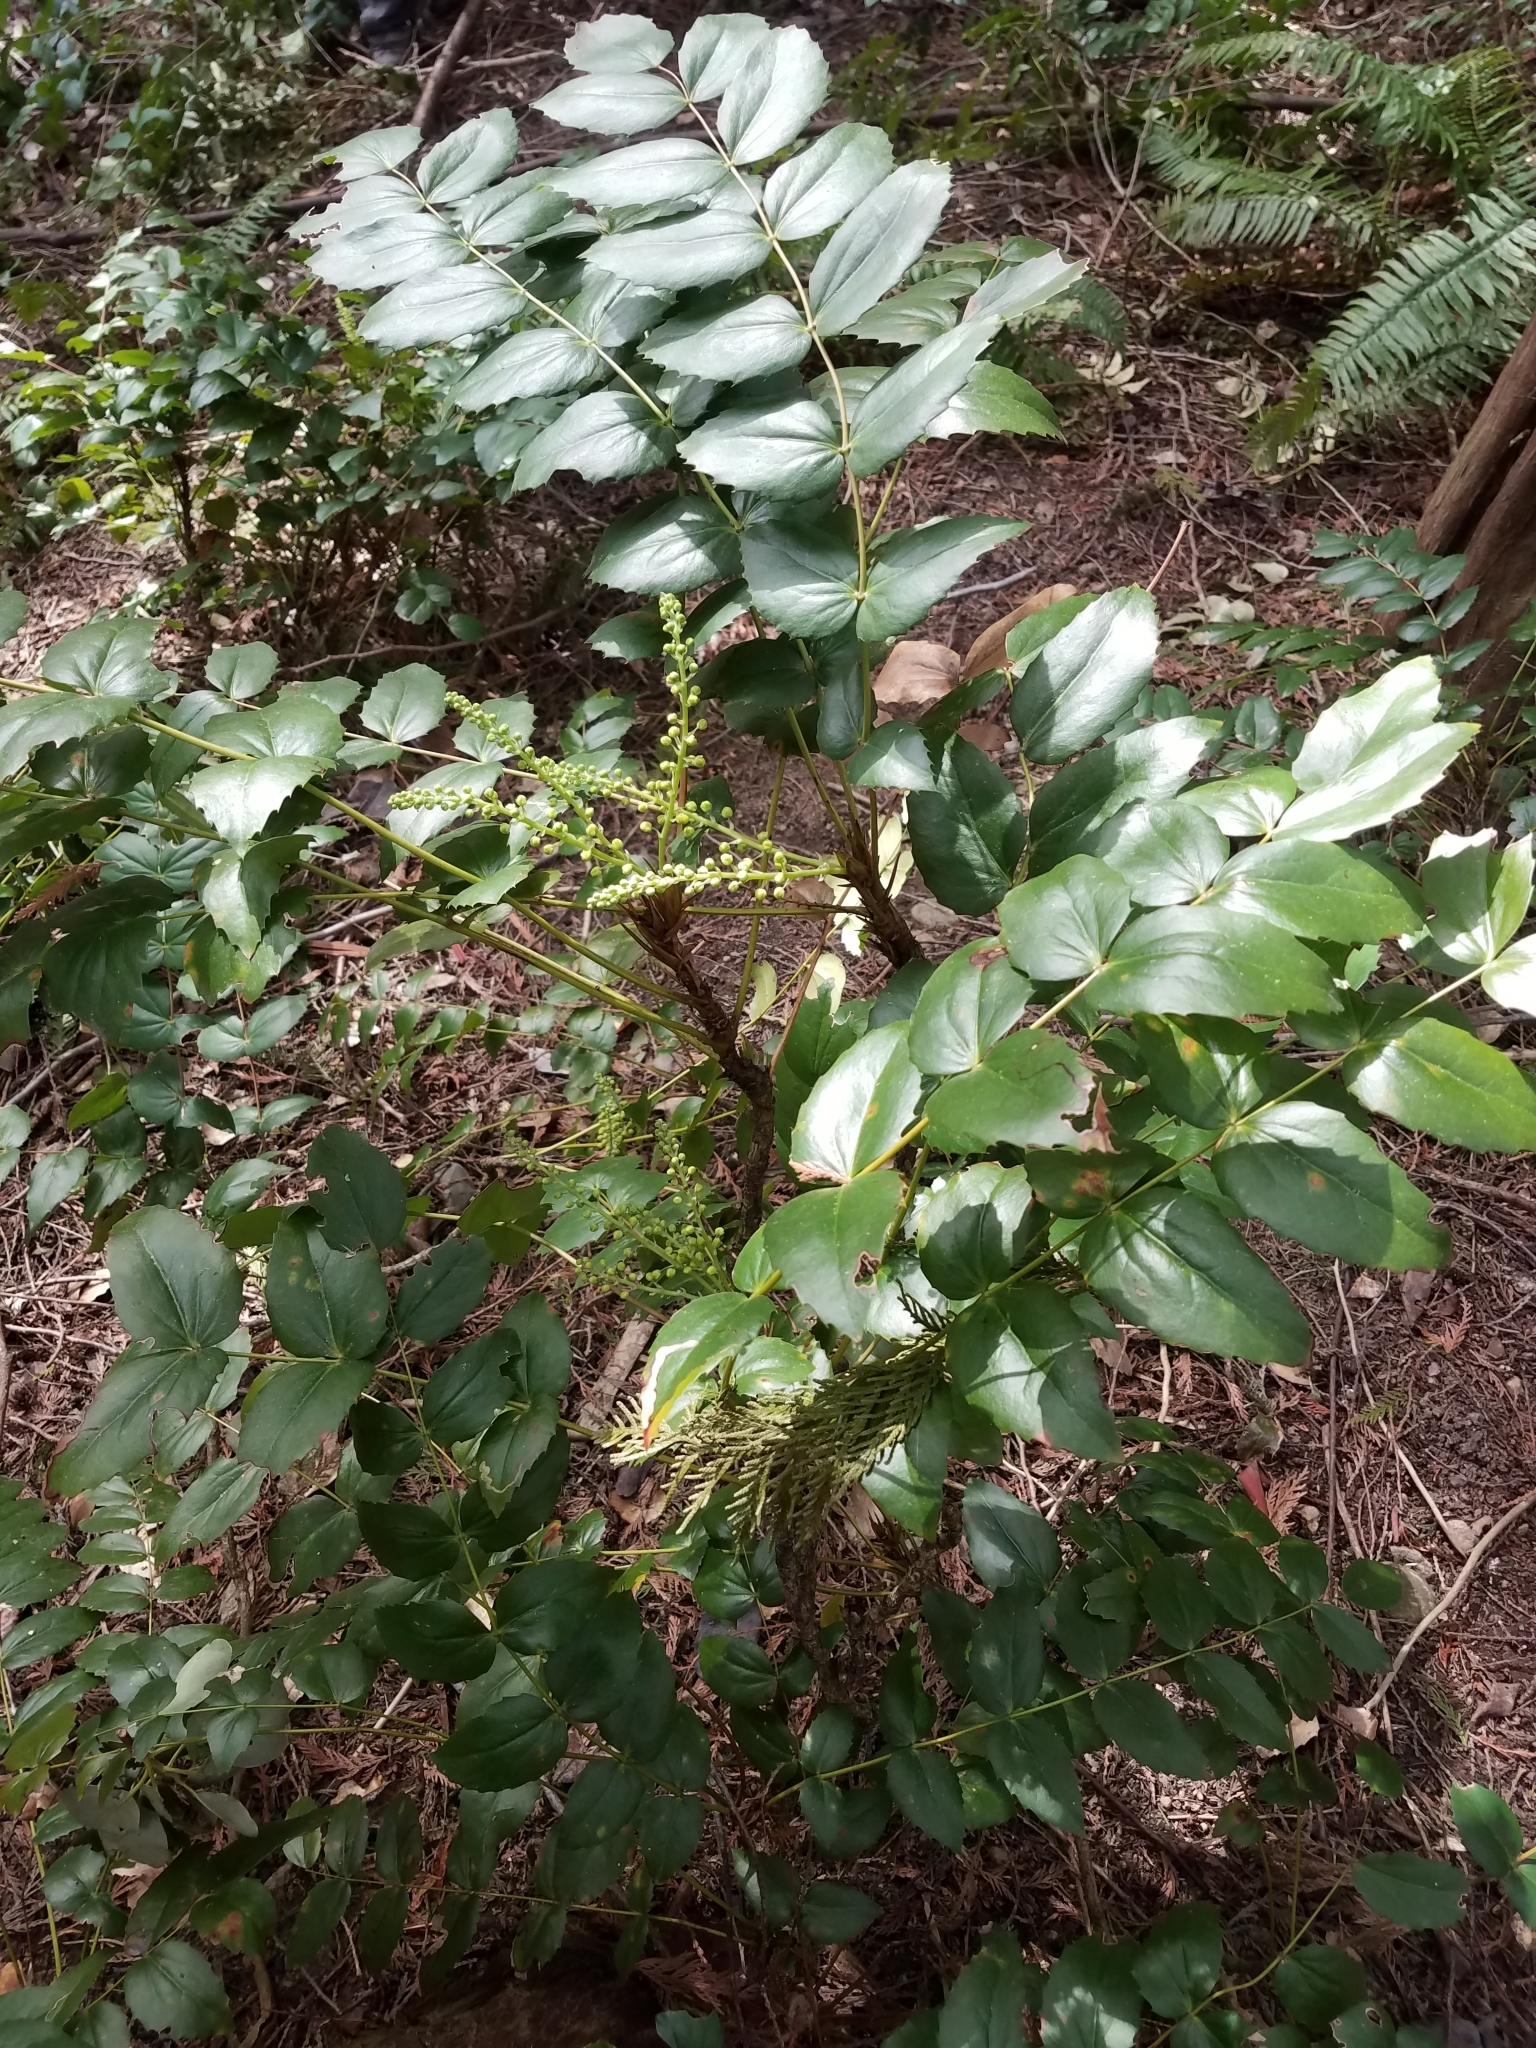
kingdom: Plantae
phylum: Tracheophyta
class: Magnoliopsida
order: Ranunculales
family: Berberidaceae
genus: Mahonia
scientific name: Mahonia nervosa
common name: Cascade oregon-grape
